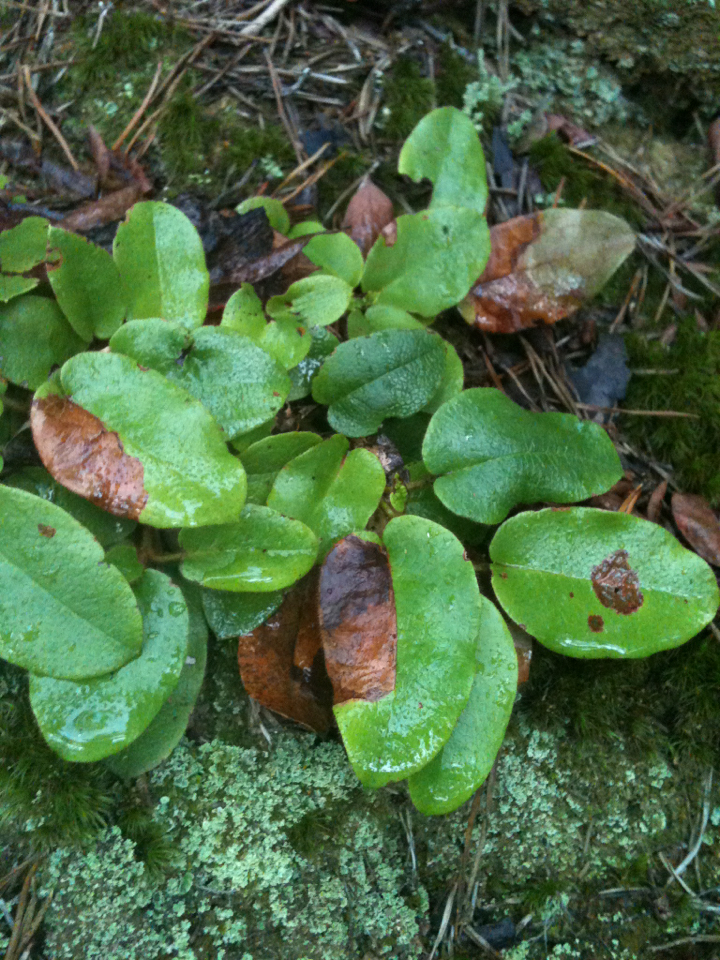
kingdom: Plantae
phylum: Tracheophyta
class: Magnoliopsida
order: Ericales
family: Ericaceae
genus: Epigaea
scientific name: Epigaea repens
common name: Gravelroot
